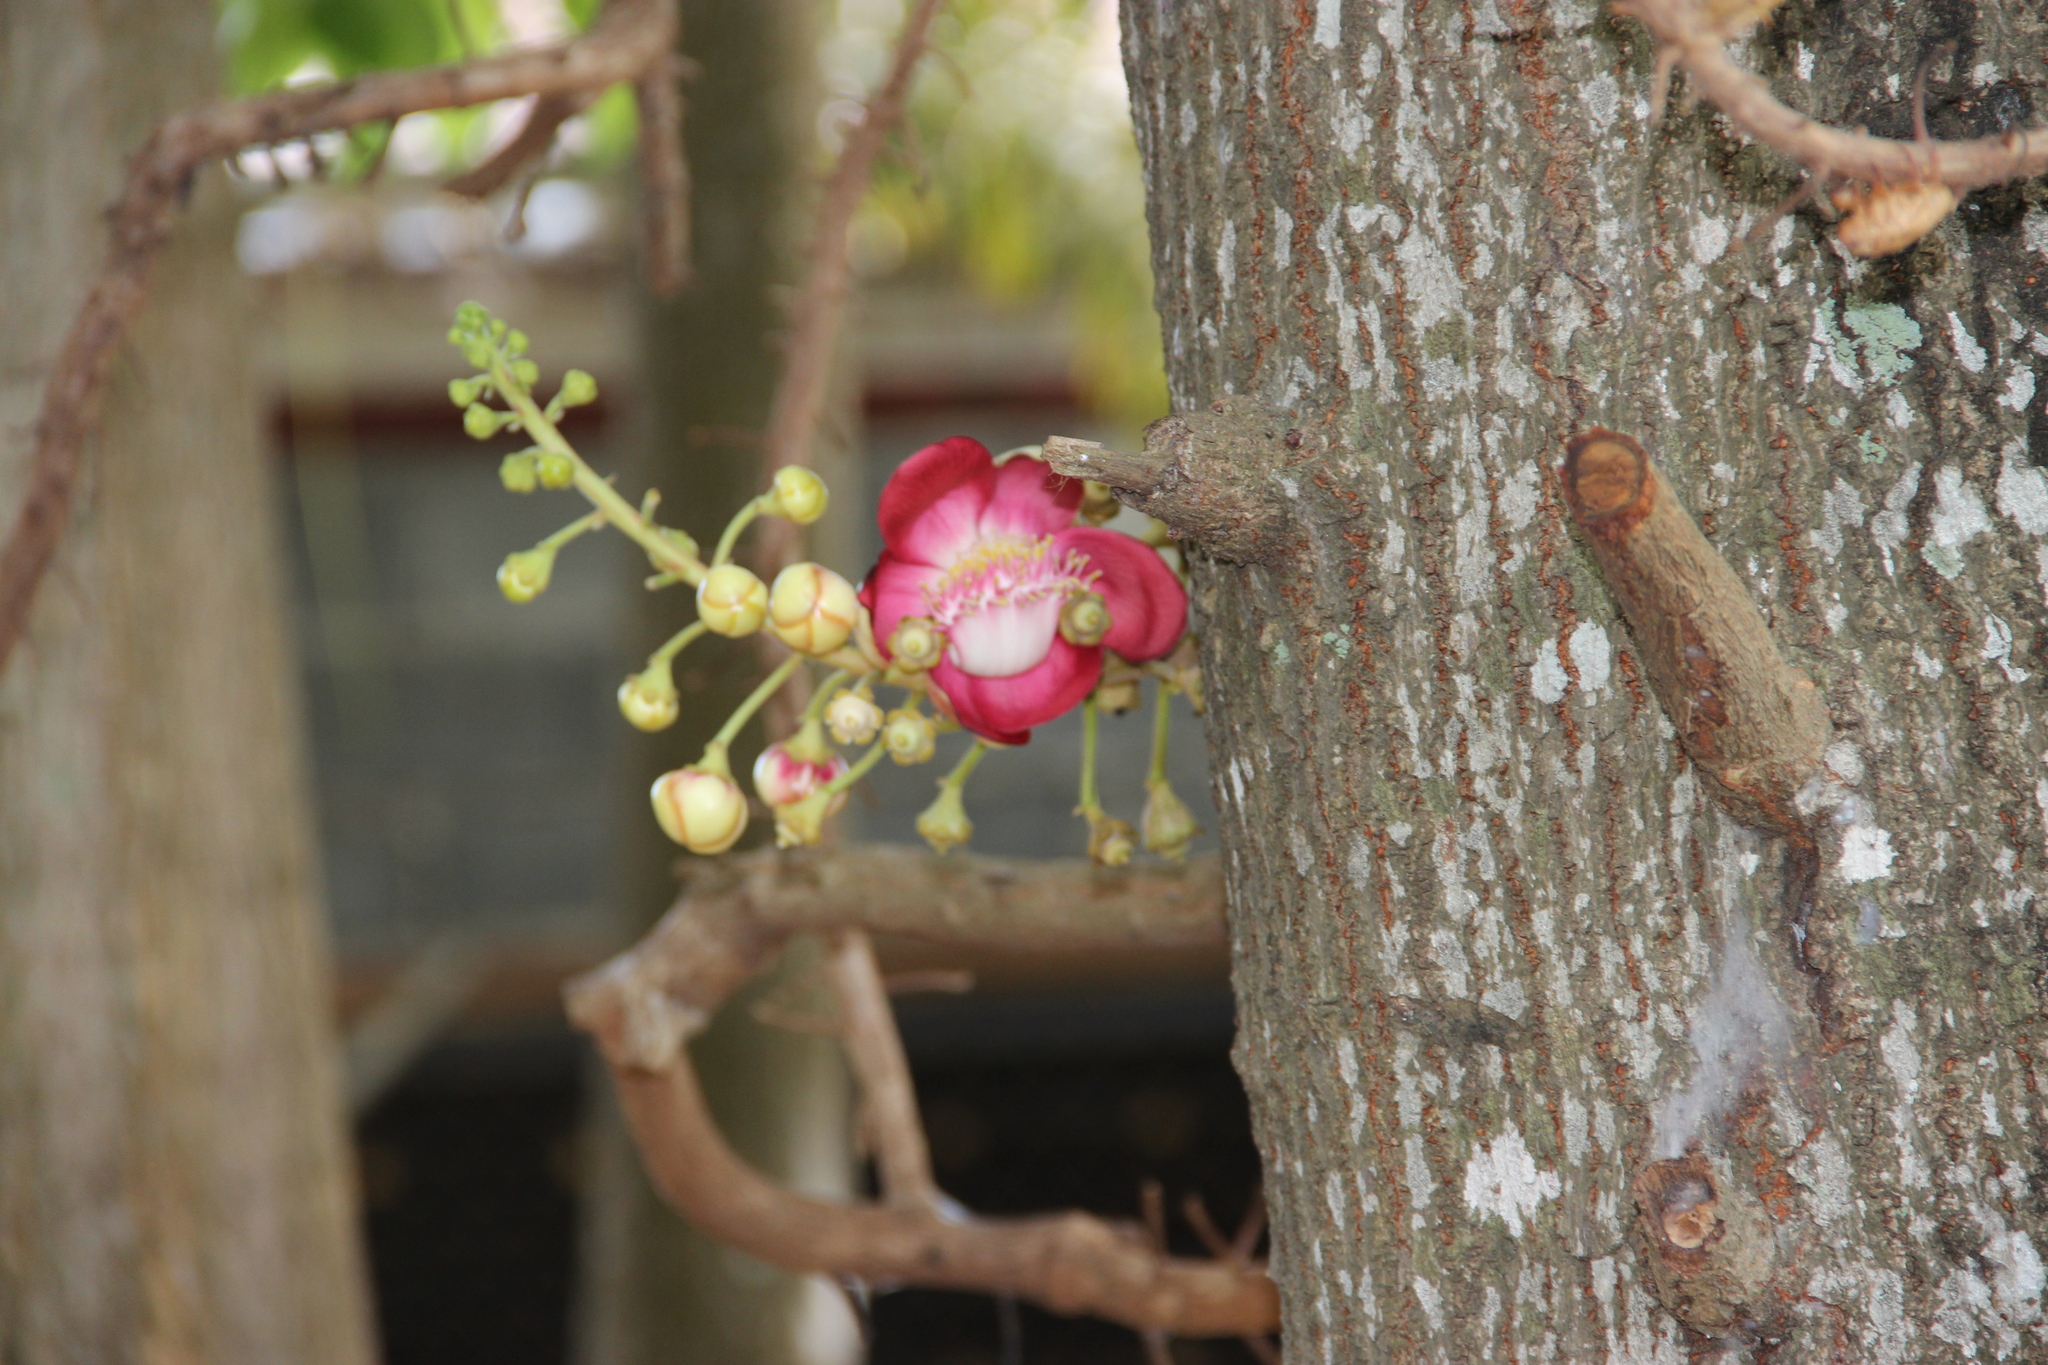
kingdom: Plantae
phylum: Tracheophyta
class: Magnoliopsida
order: Ericales
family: Lecythidaceae
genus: Couroupita
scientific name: Couroupita guianensis
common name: Cannonball tree
